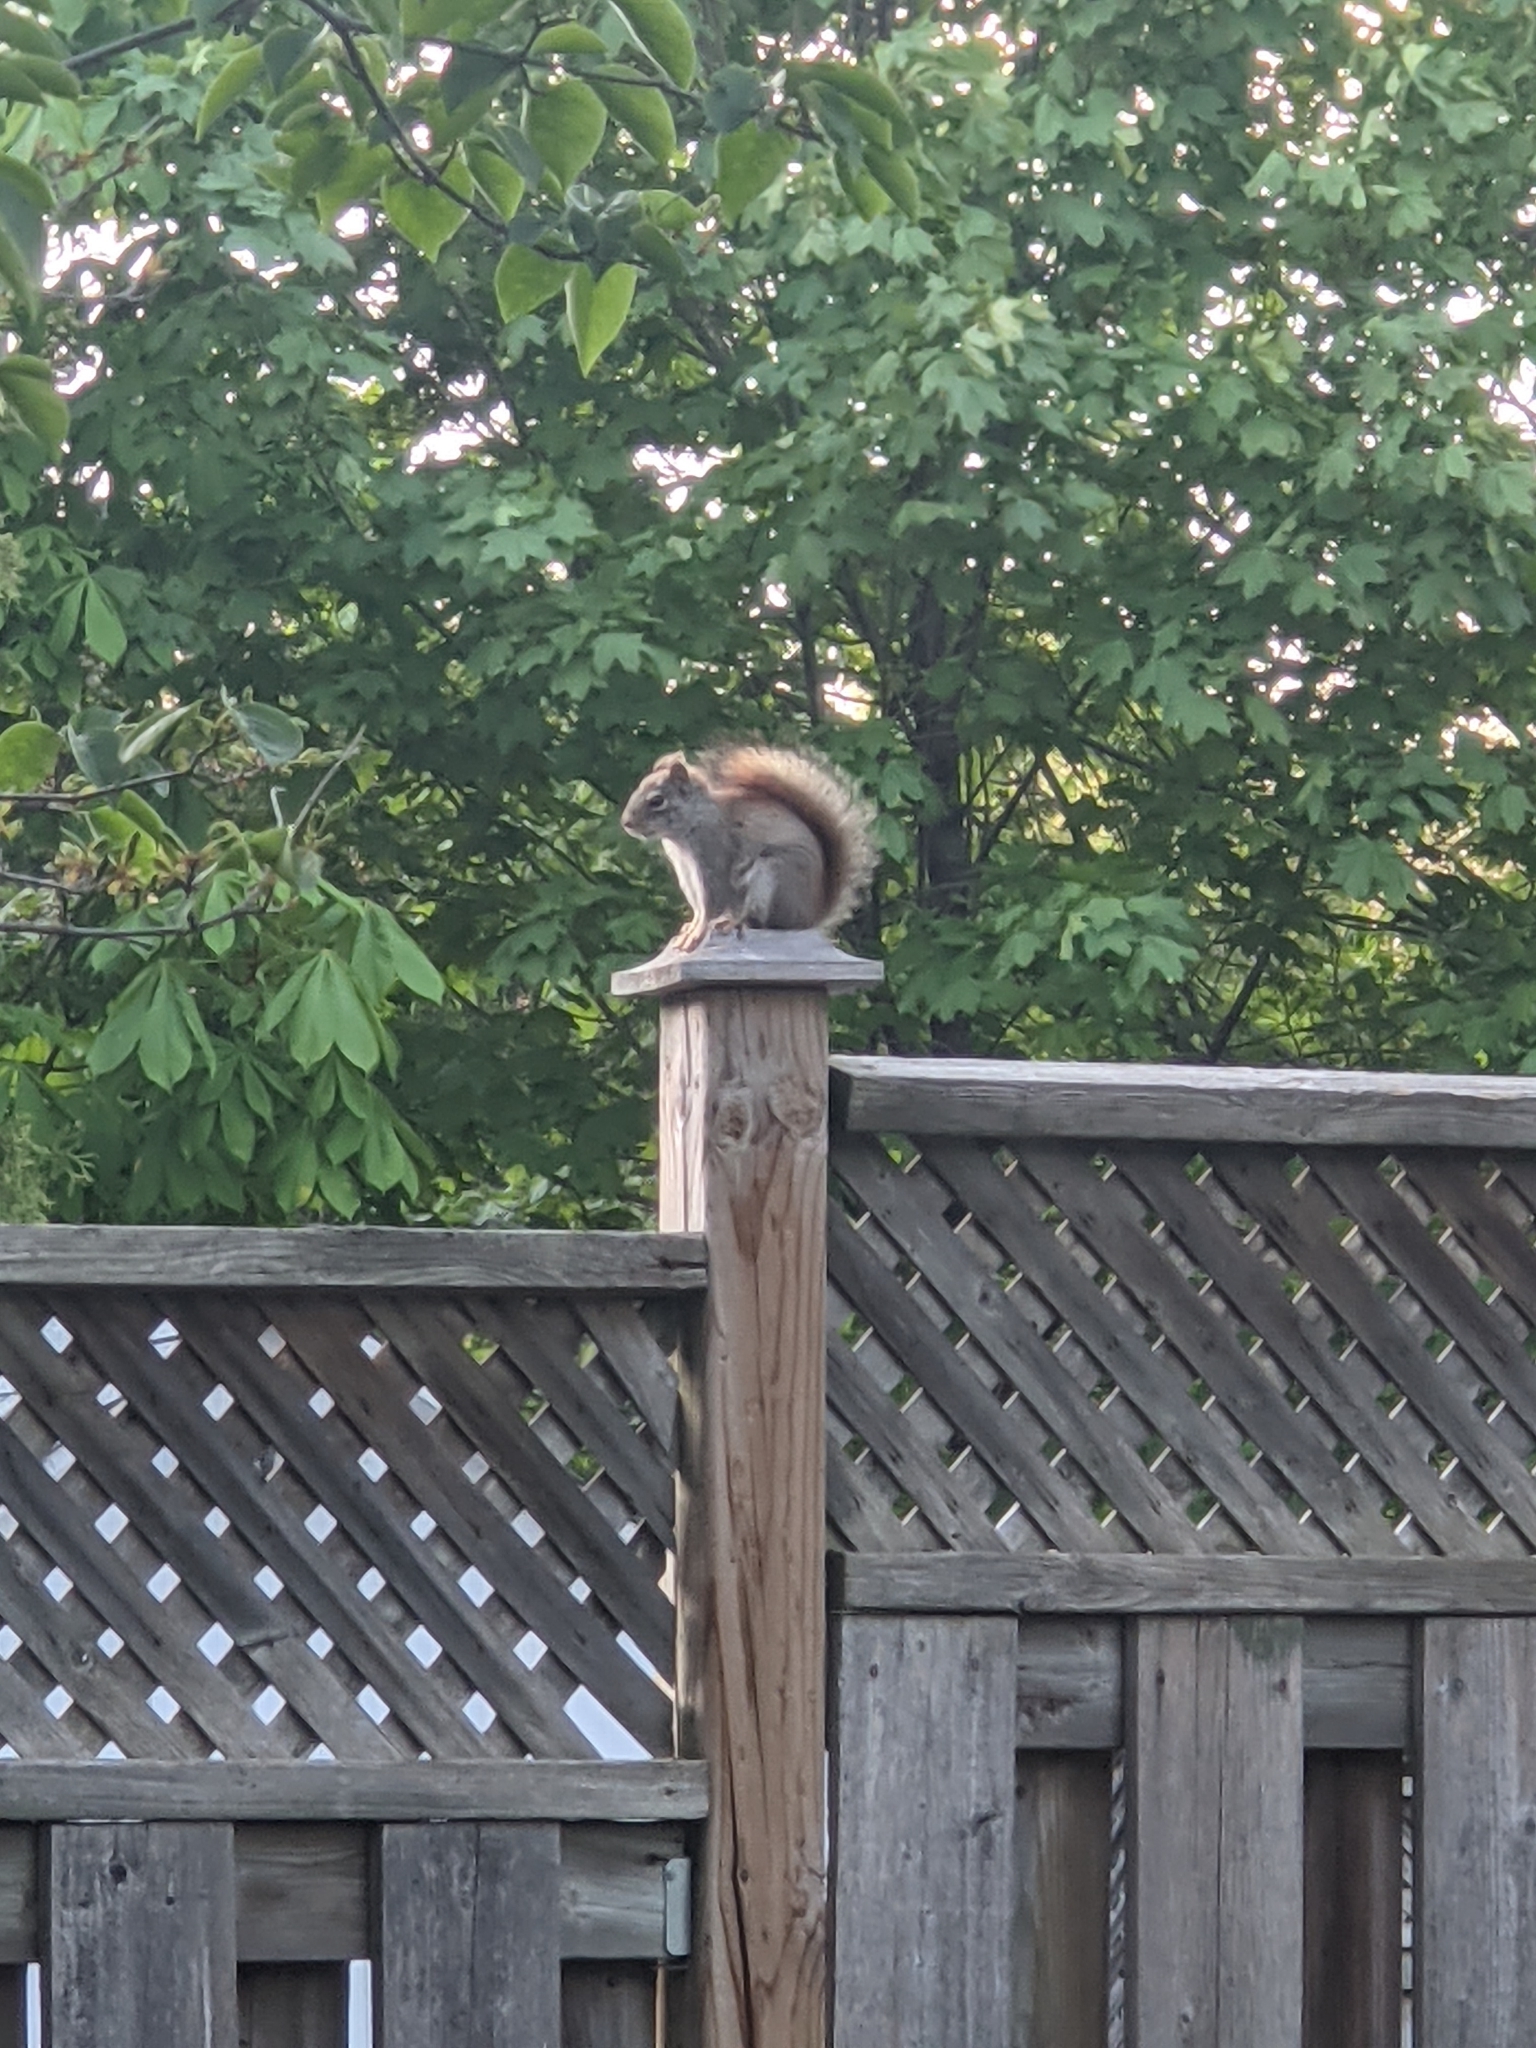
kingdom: Animalia
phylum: Chordata
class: Mammalia
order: Rodentia
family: Sciuridae
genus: Tamiasciurus
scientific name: Tamiasciurus hudsonicus
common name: Red squirrel
